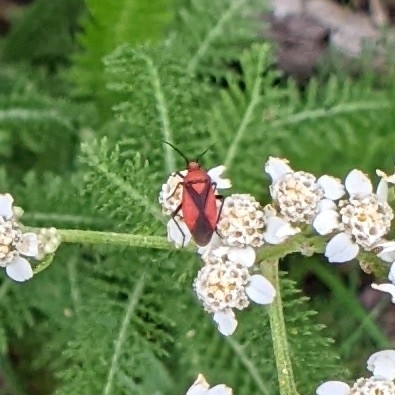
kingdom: Animalia
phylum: Arthropoda
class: Insecta
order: Hemiptera
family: Miridae
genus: Oncerometopus
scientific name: Oncerometopus nigriclavus
